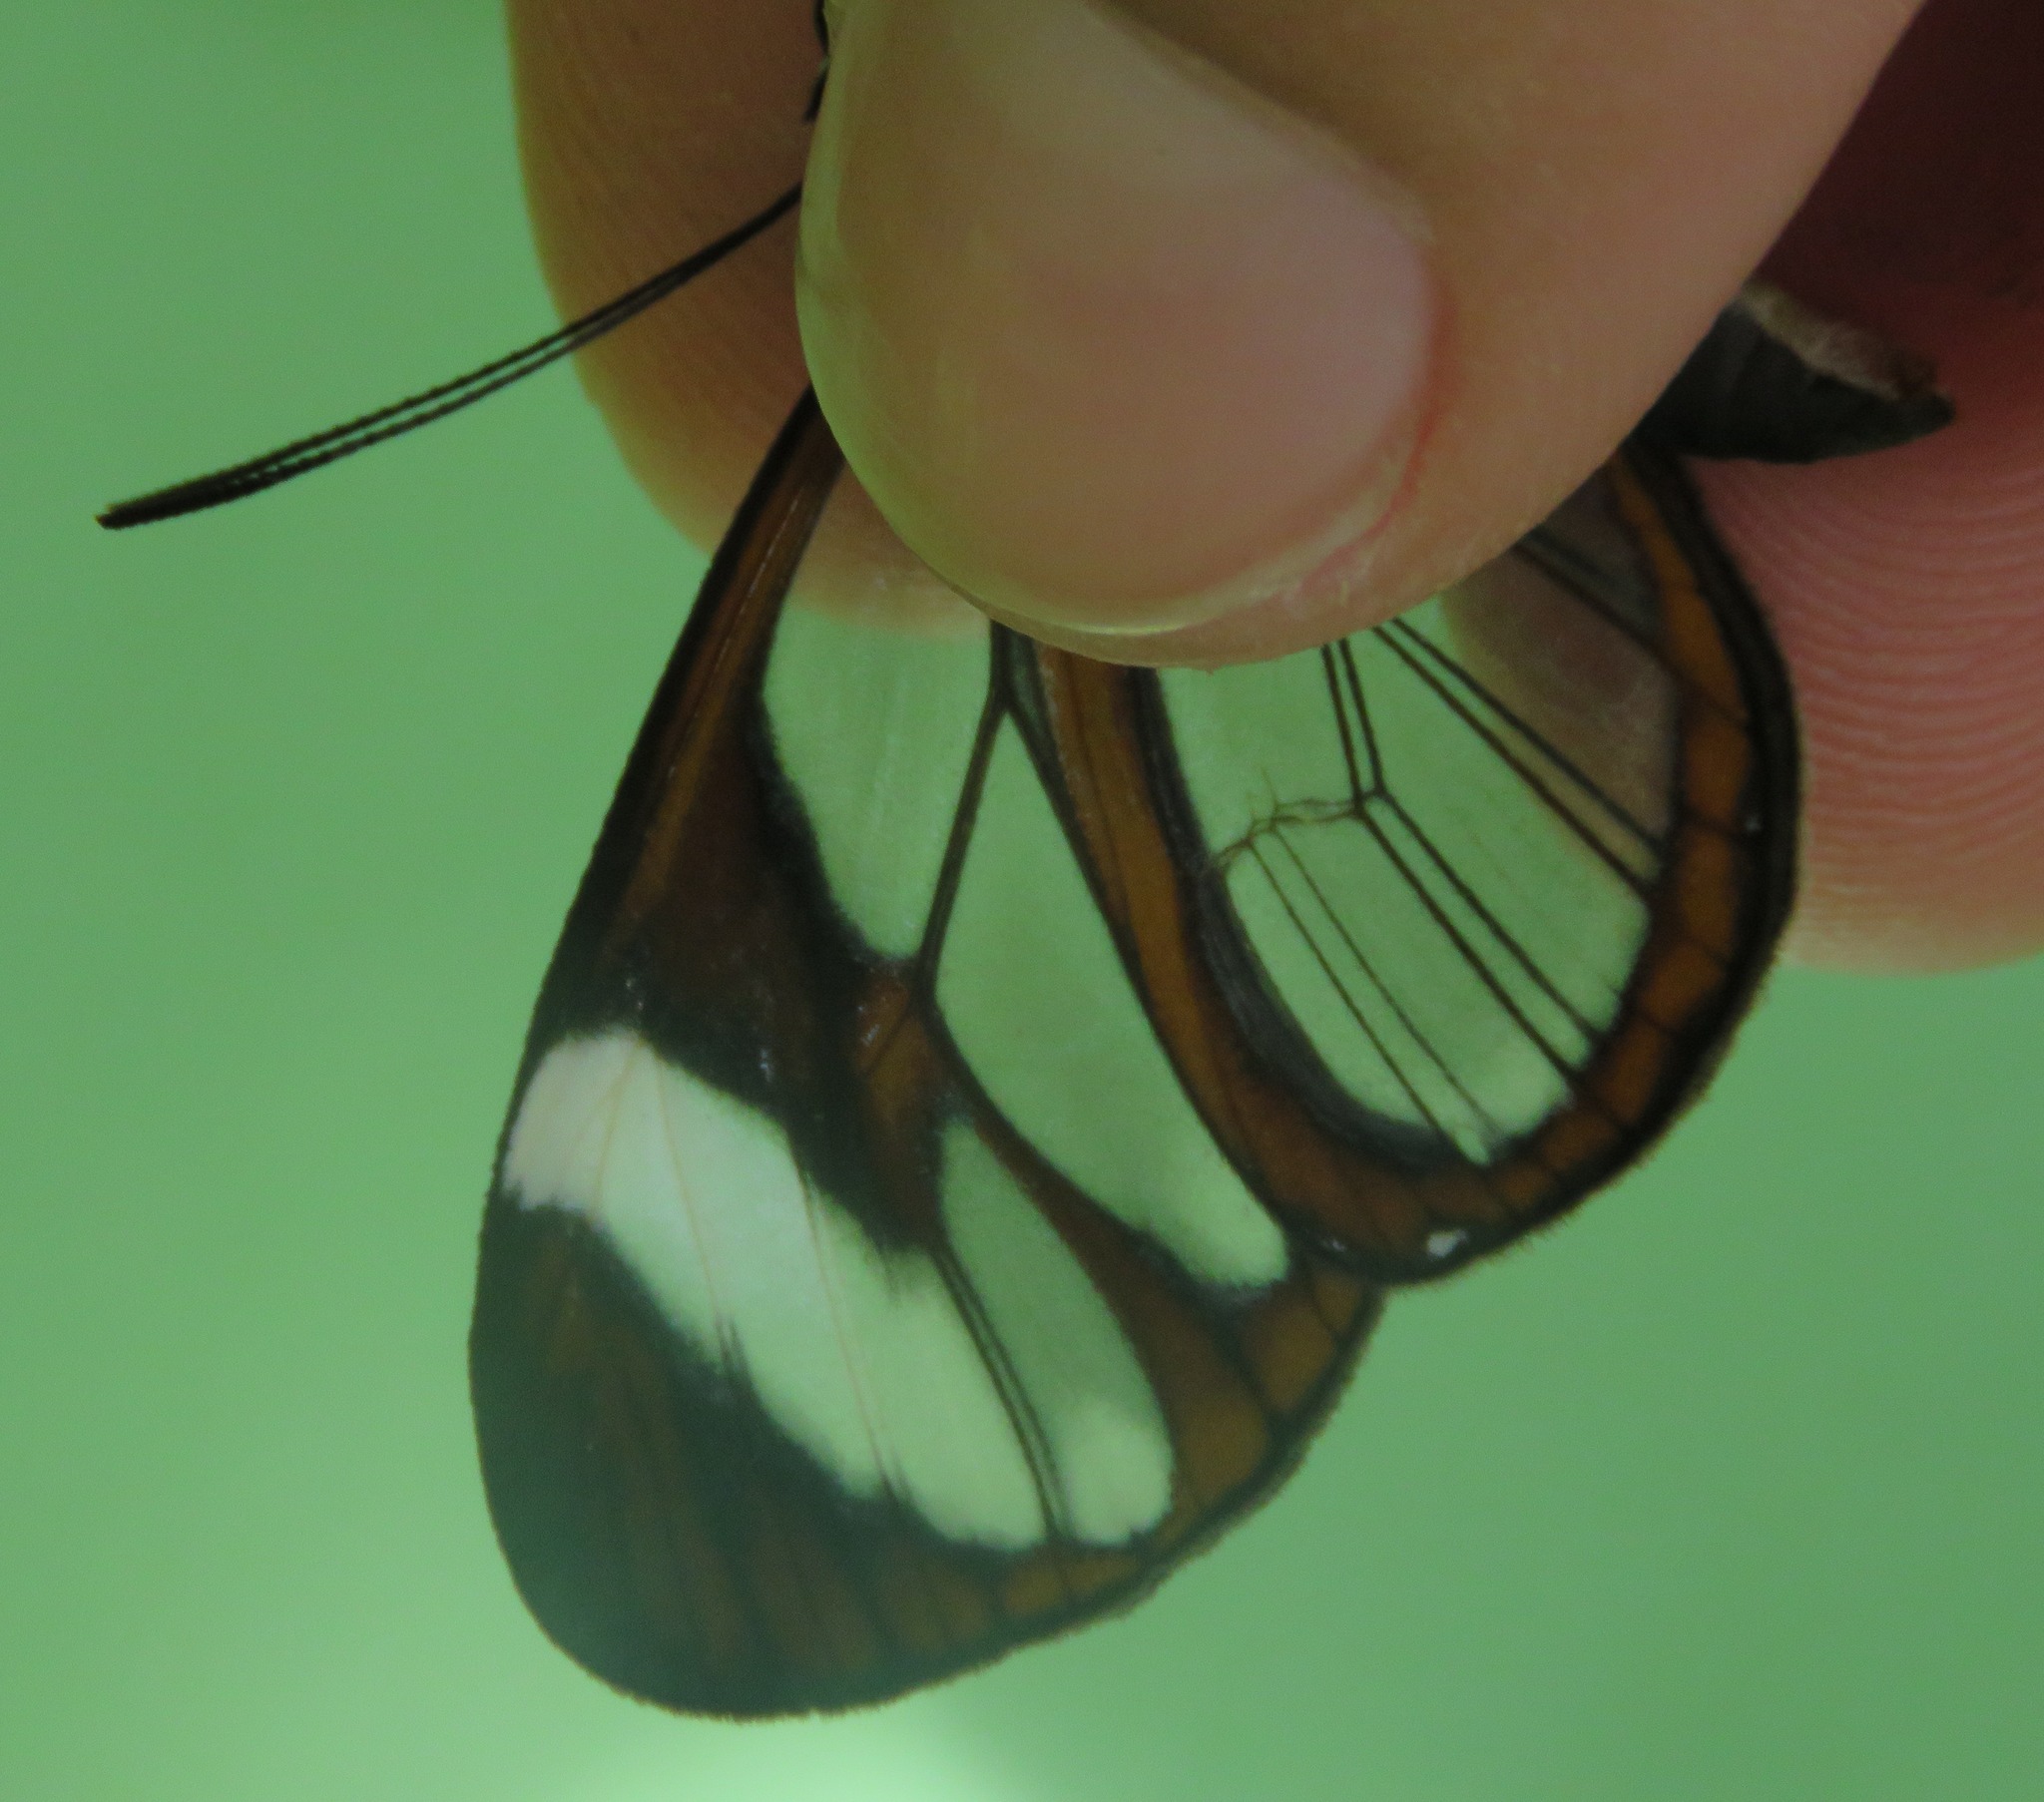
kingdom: Animalia
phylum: Arthropoda
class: Insecta
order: Lepidoptera
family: Nymphalidae
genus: Ithomia
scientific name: Ithomia patilla
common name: Patilla clearwing
